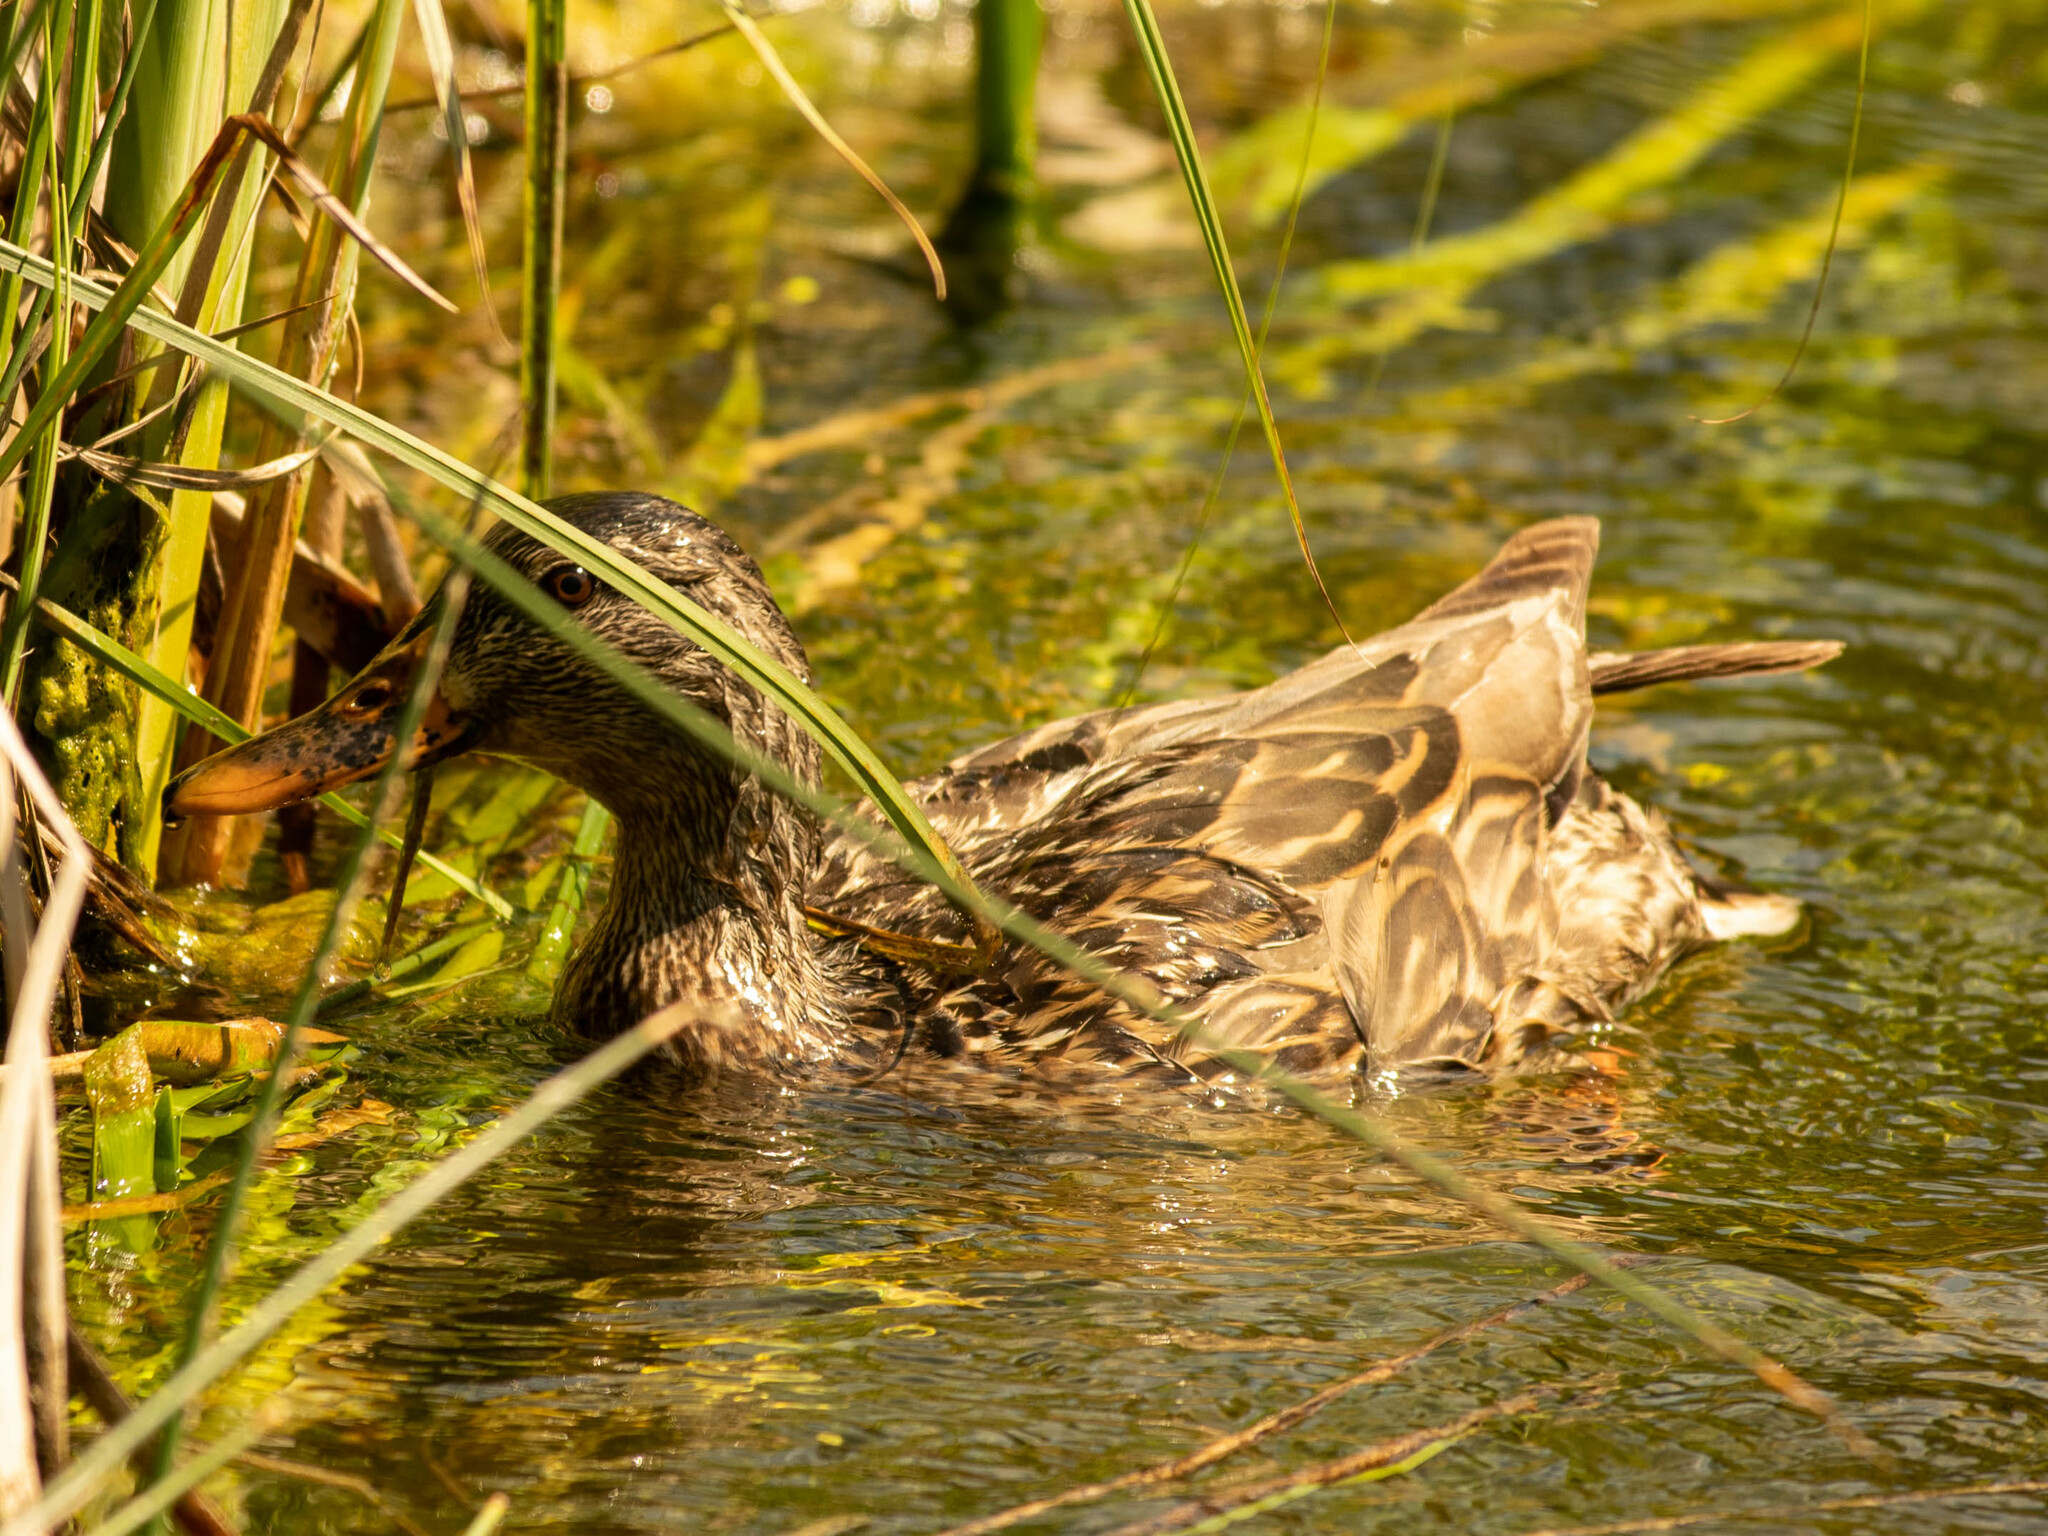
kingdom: Animalia
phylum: Chordata
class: Aves
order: Anseriformes
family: Anatidae
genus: Anas
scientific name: Anas platyrhynchos
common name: Mallard
